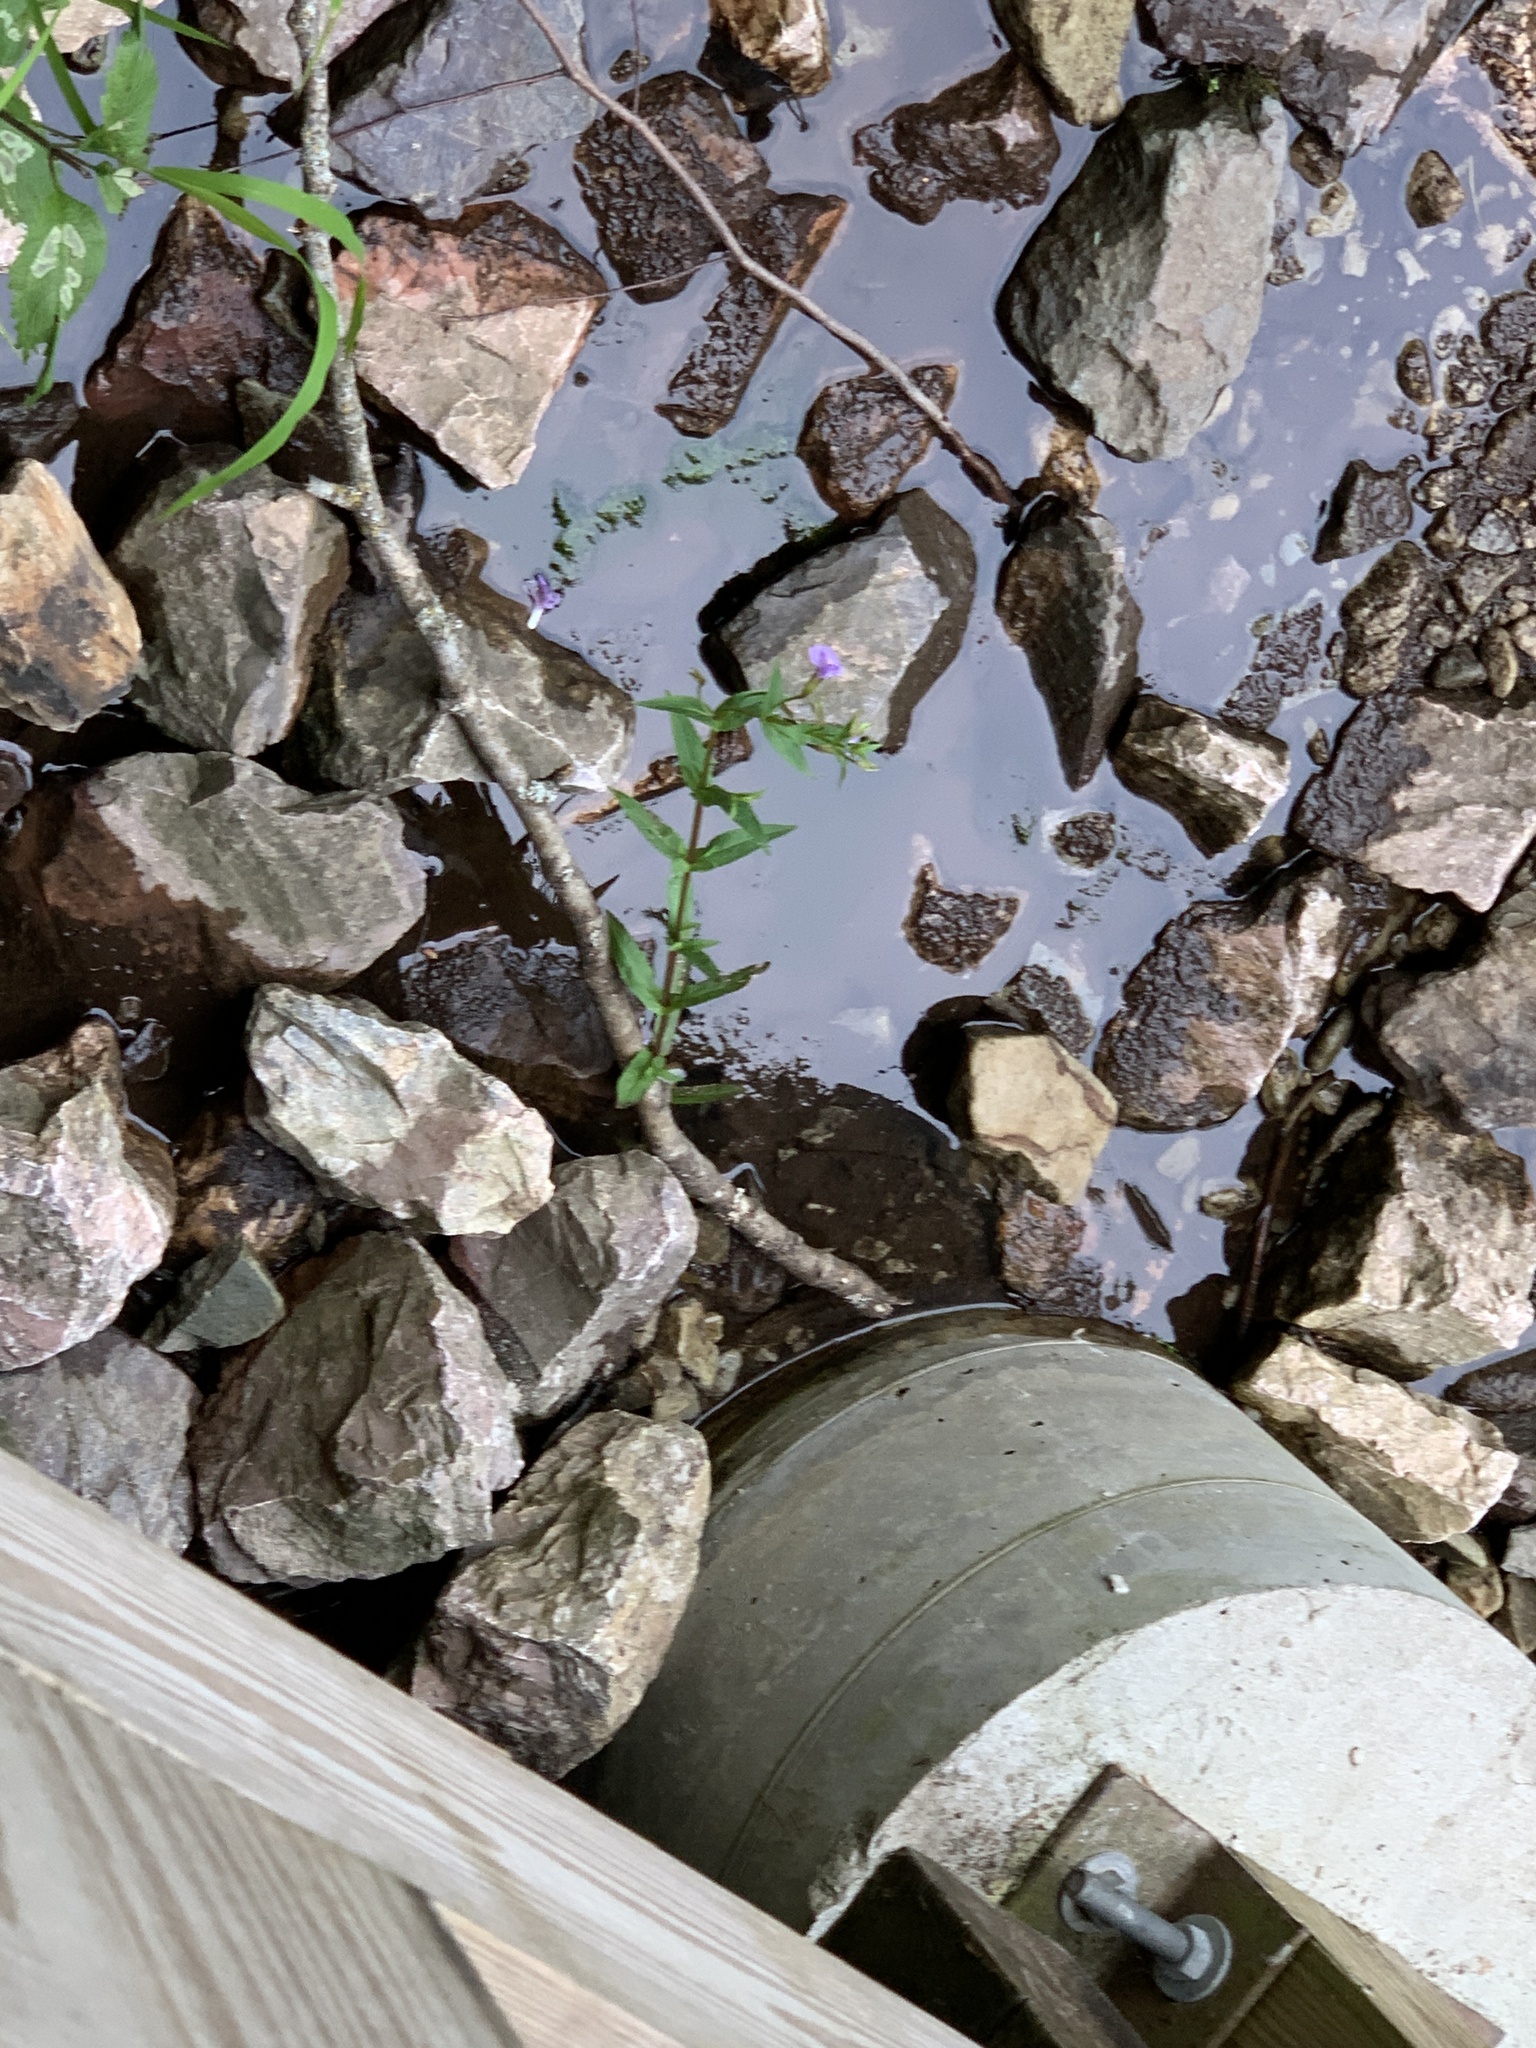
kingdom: Plantae
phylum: Tracheophyta
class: Magnoliopsida
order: Lamiales
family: Phrymaceae
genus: Mimulus
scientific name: Mimulus ringens
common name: Allegheny monkeyflower
